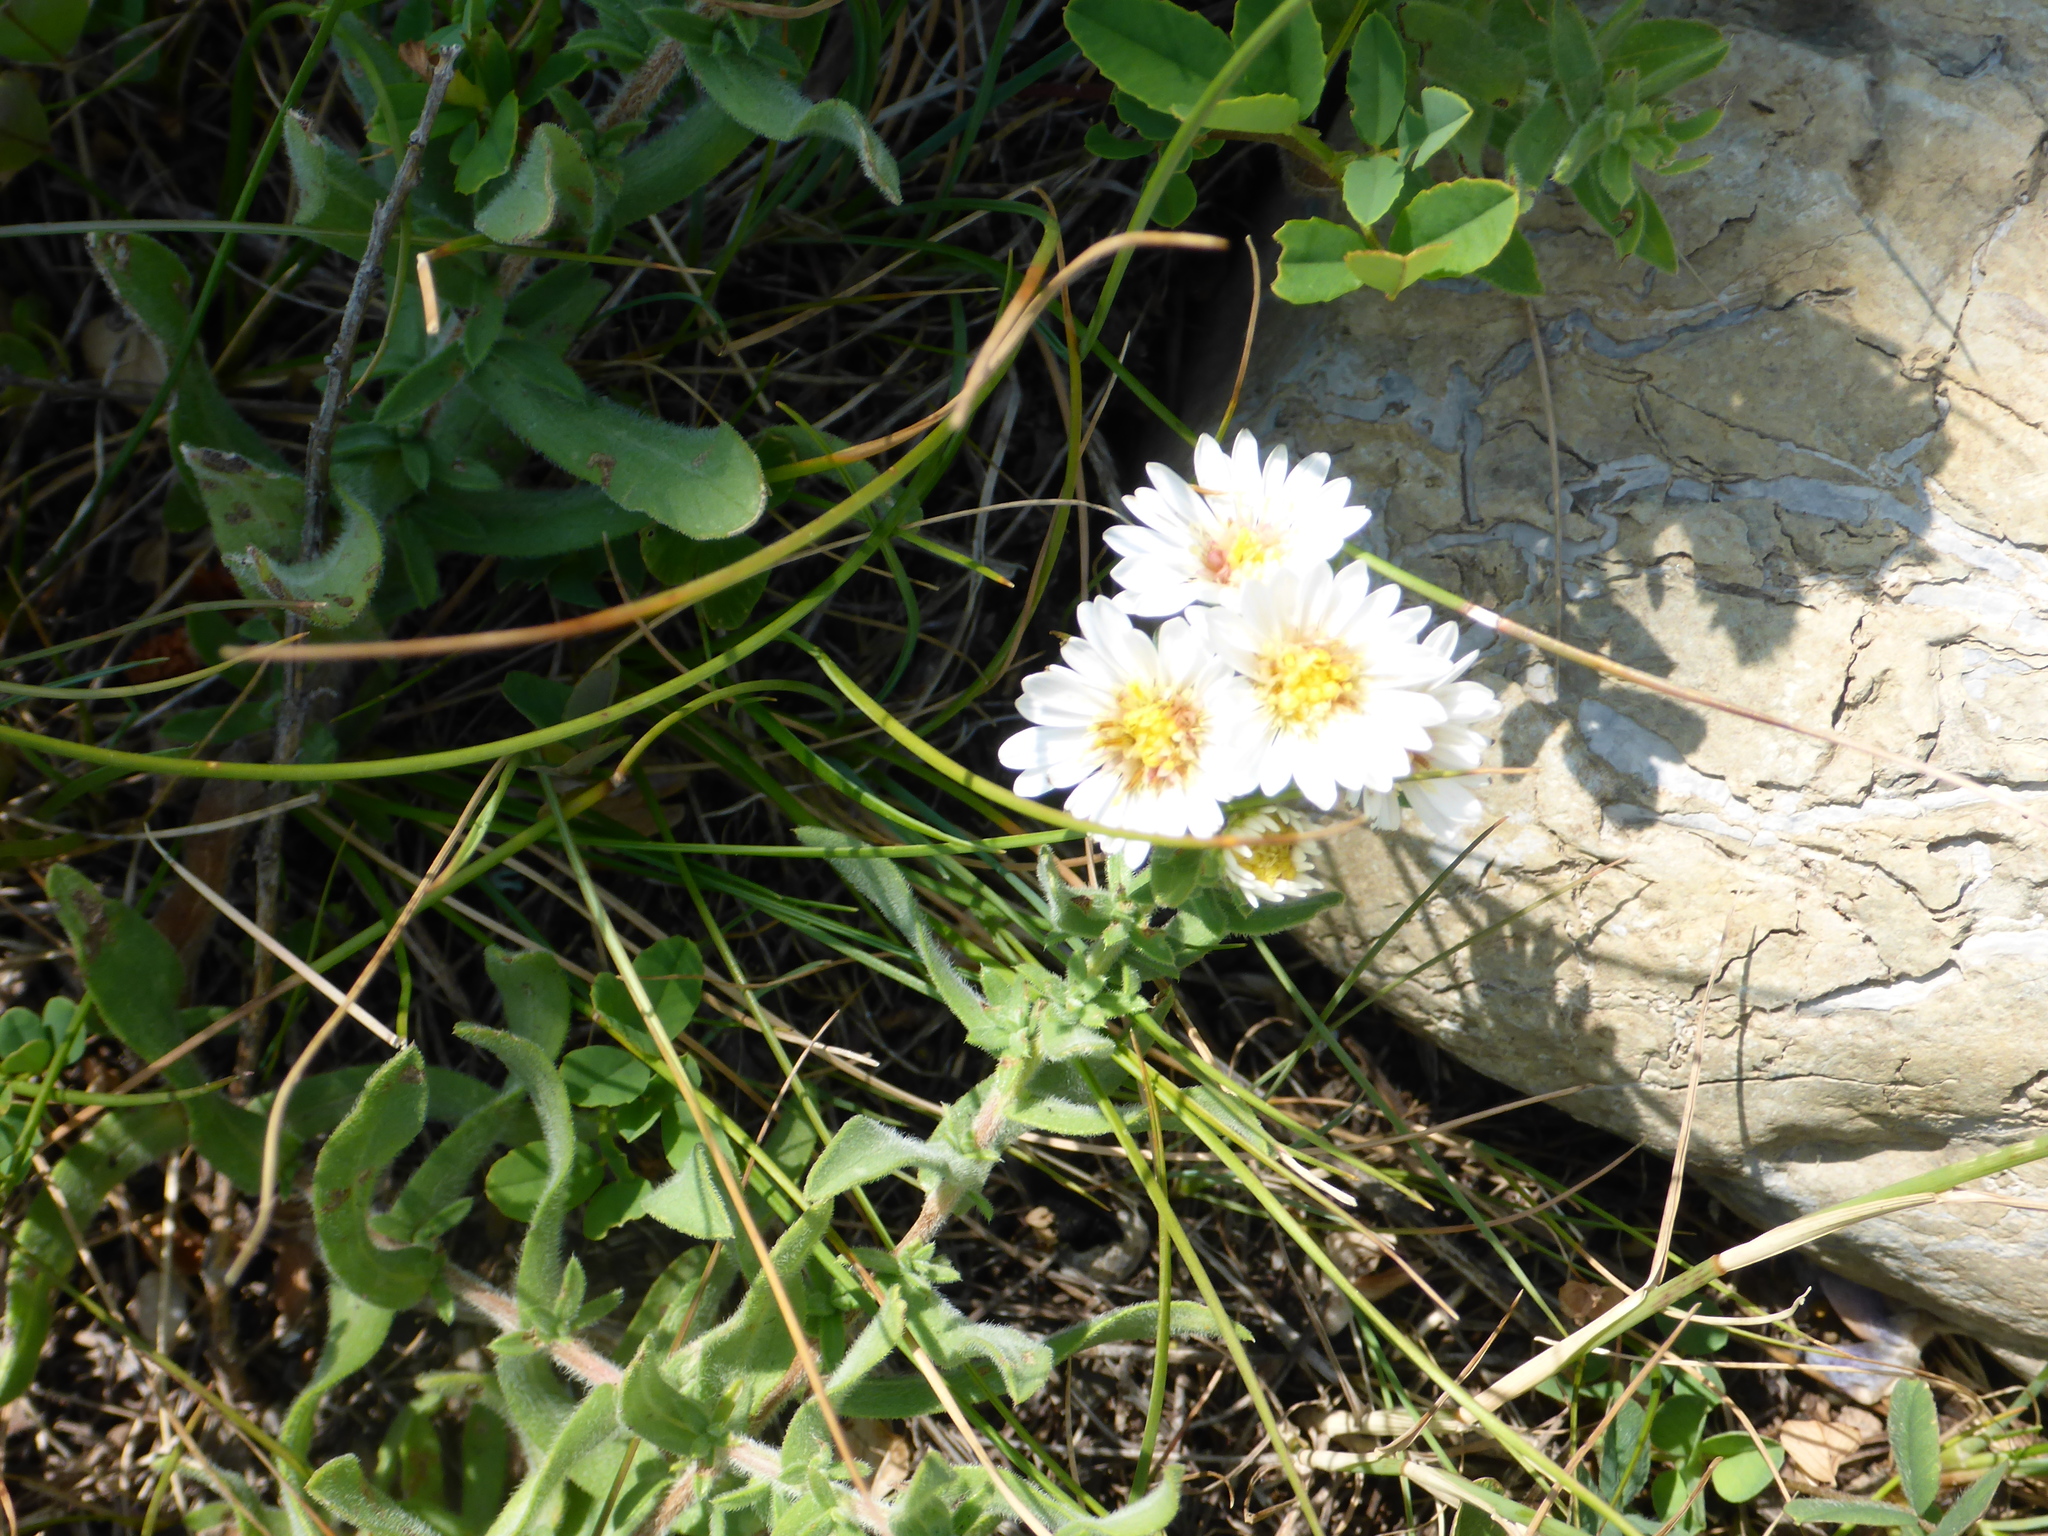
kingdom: Plantae
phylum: Tracheophyta
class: Magnoliopsida
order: Asterales
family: Asteraceae
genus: Erigeron
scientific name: Erigeron caespitosus
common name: Tufted fleabane
